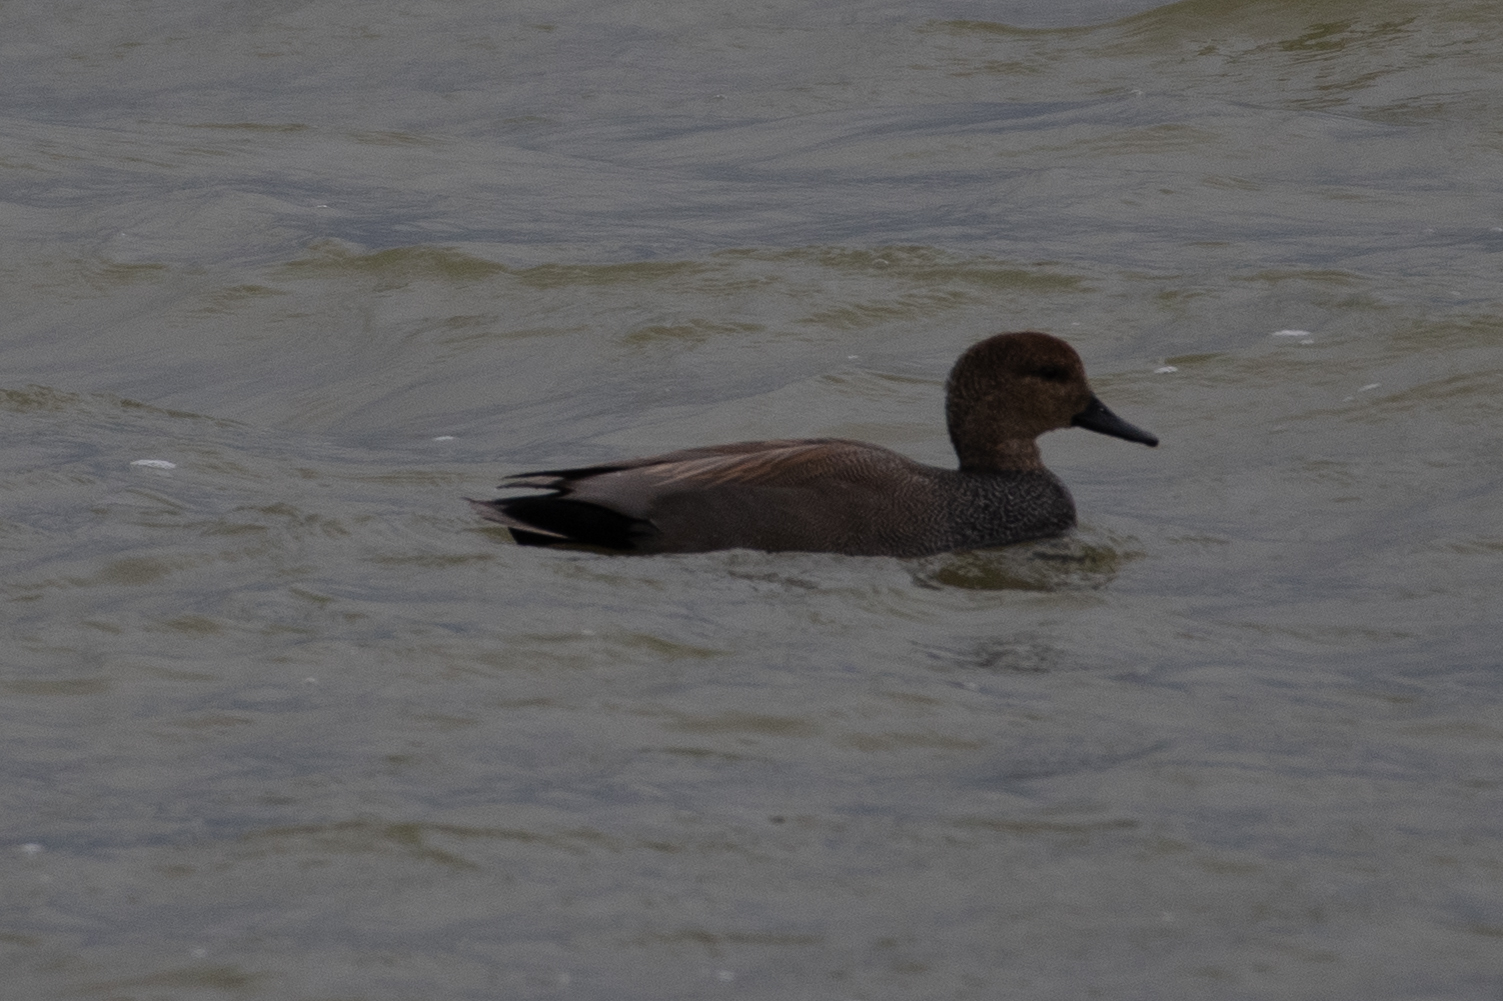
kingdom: Animalia
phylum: Chordata
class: Aves
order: Anseriformes
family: Anatidae
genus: Mareca
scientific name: Mareca strepera
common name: Gadwall
